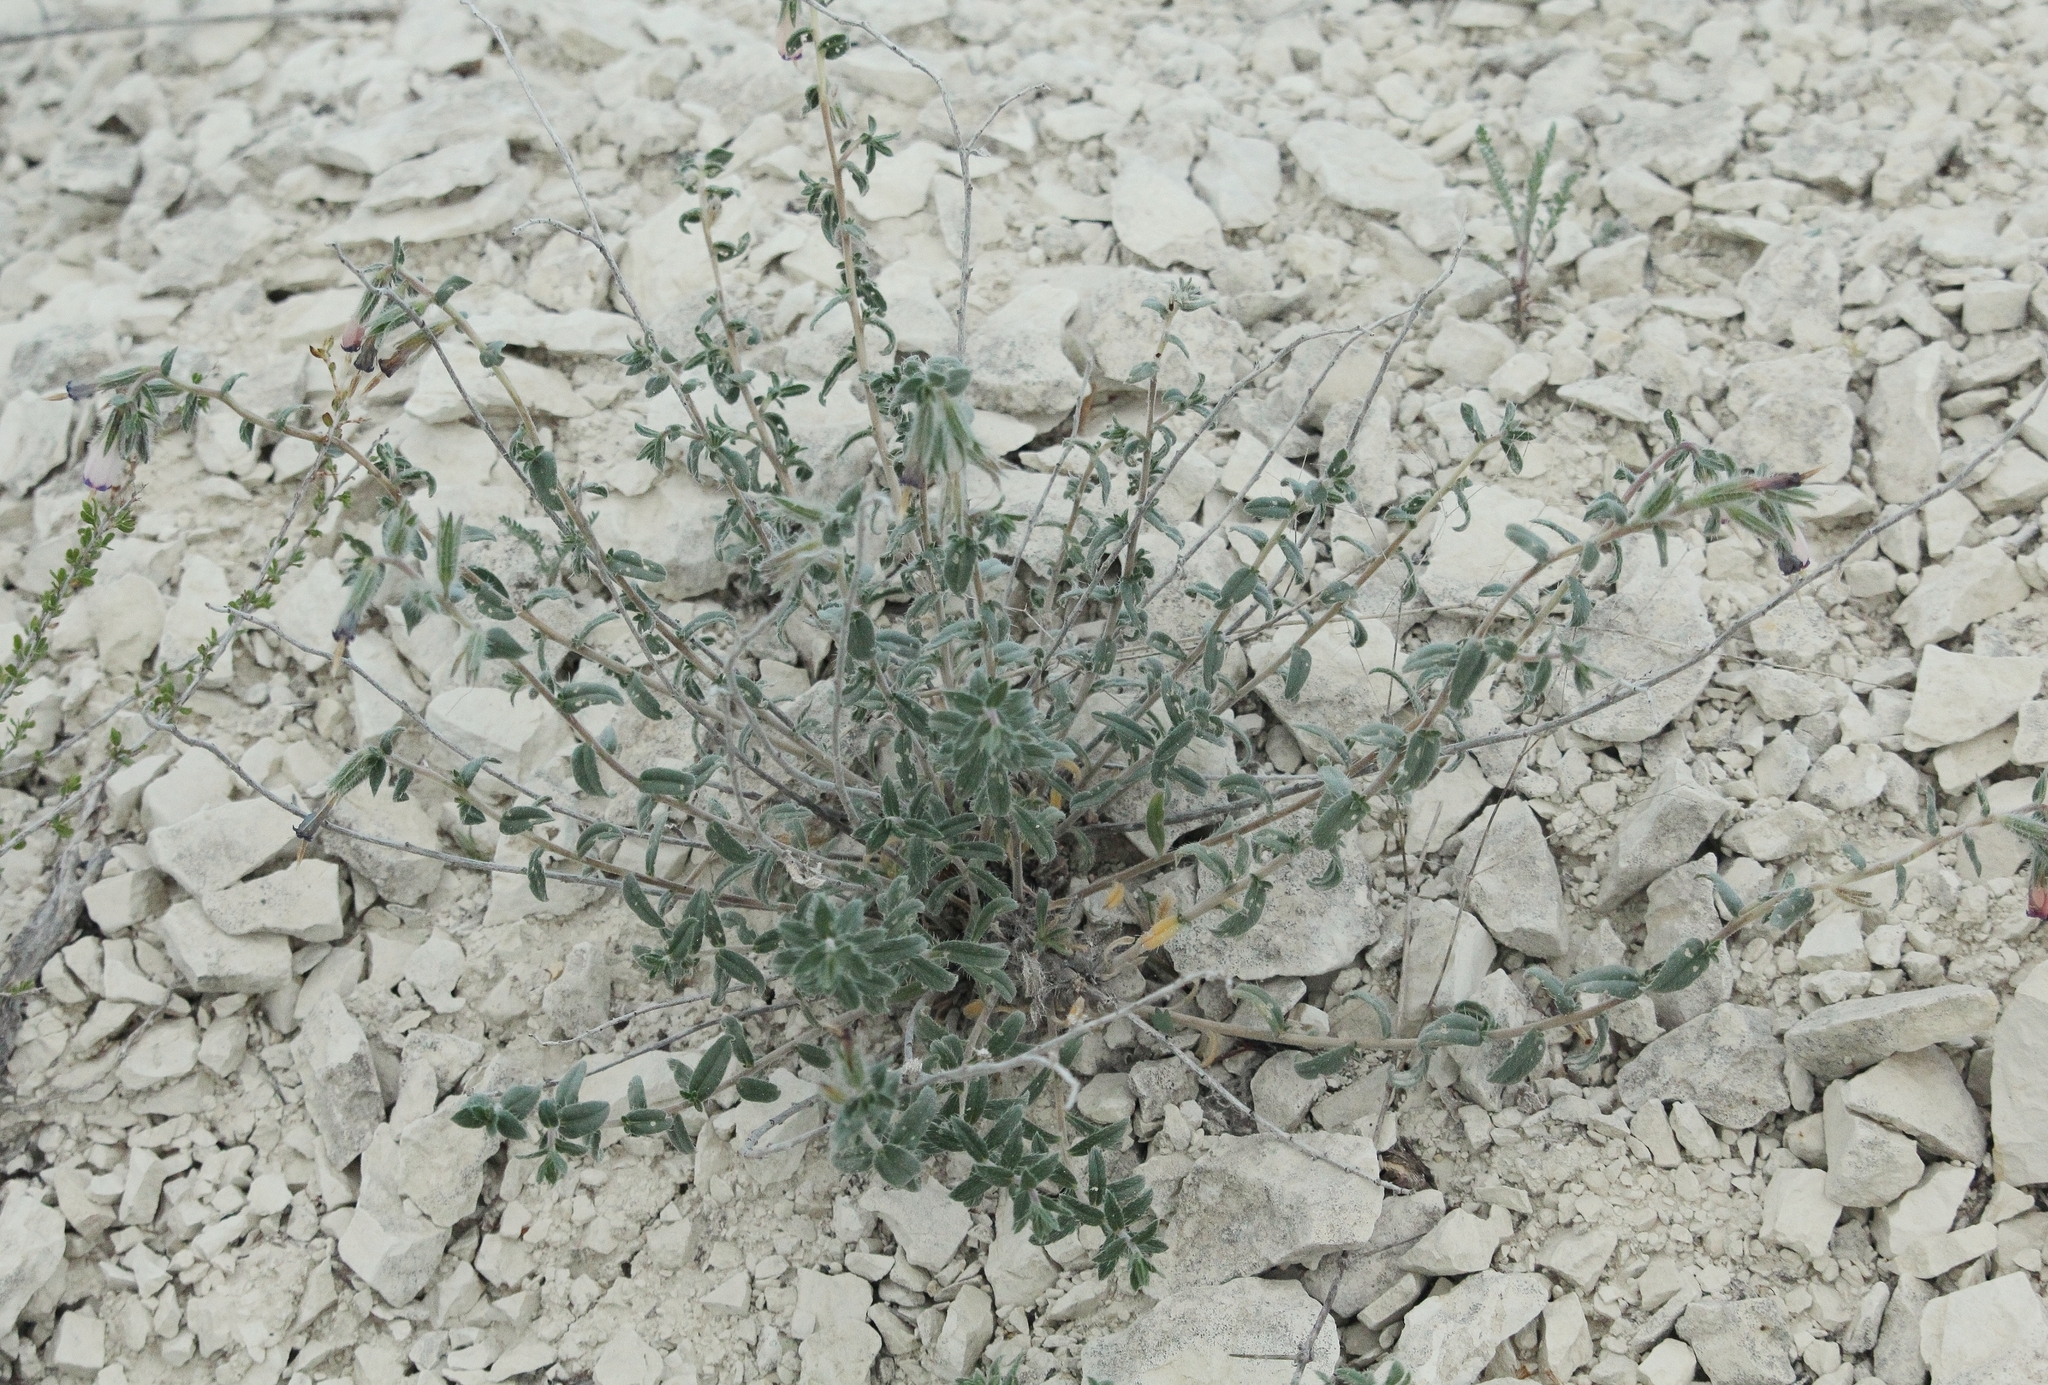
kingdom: Plantae
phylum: Tracheophyta
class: Magnoliopsida
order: Boraginales
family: Boraginaceae
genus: Onosma
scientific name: Onosma staminea
